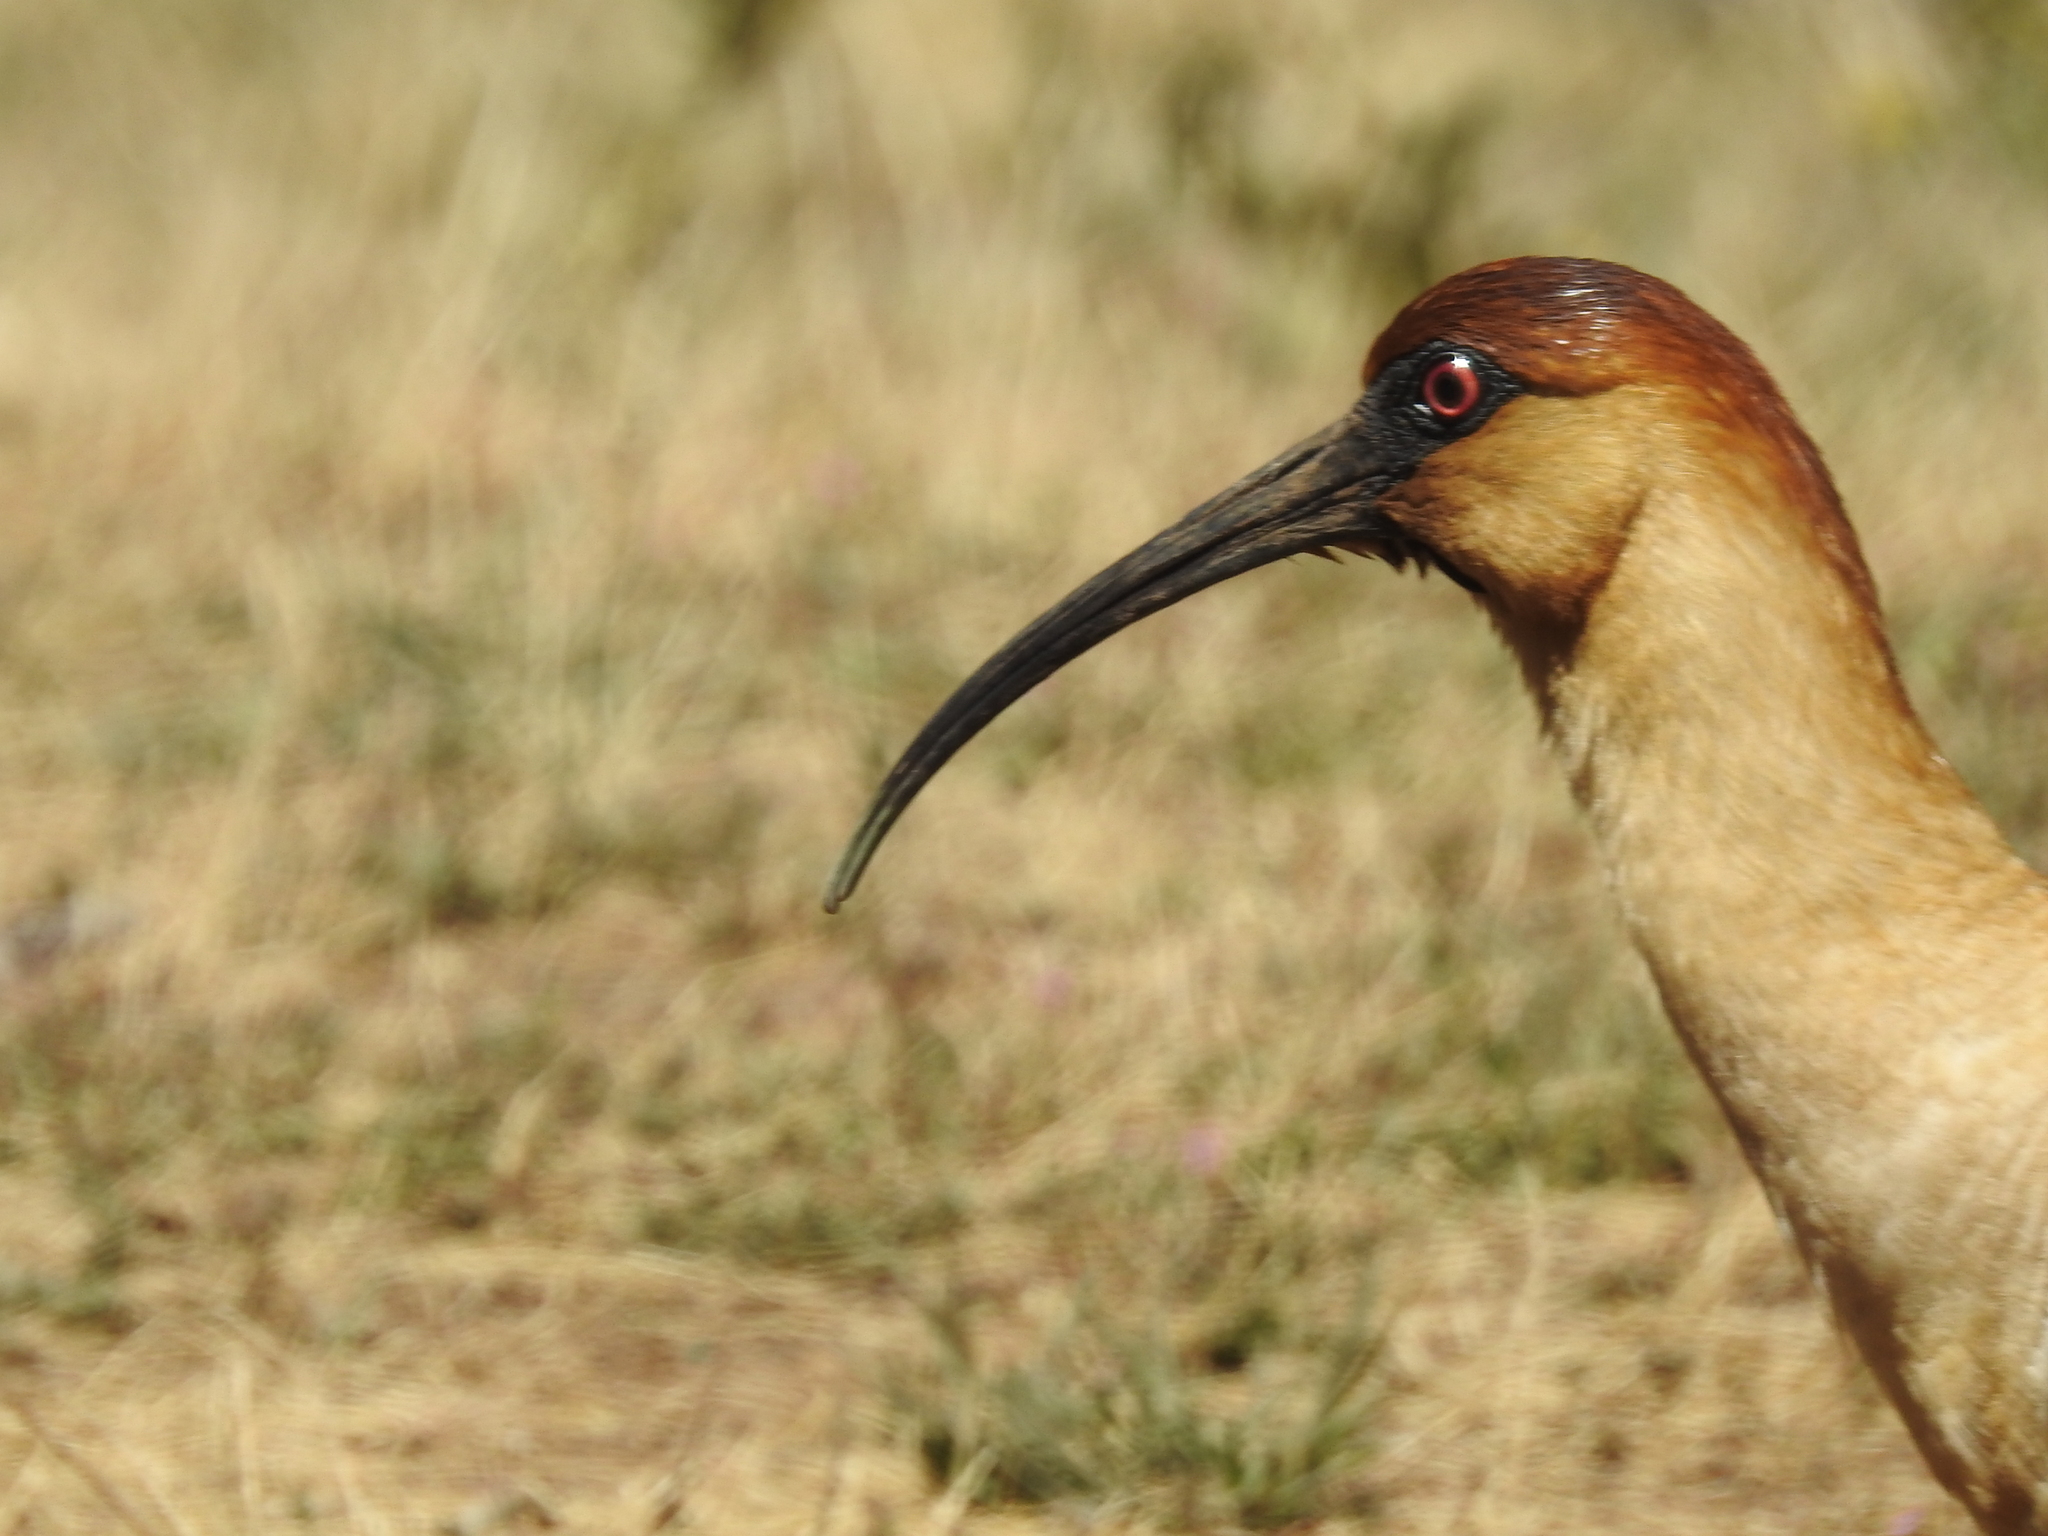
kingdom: Animalia
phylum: Chordata
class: Aves
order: Pelecaniformes
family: Threskiornithidae
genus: Theristicus
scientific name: Theristicus melanopis
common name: Black-faced ibis
